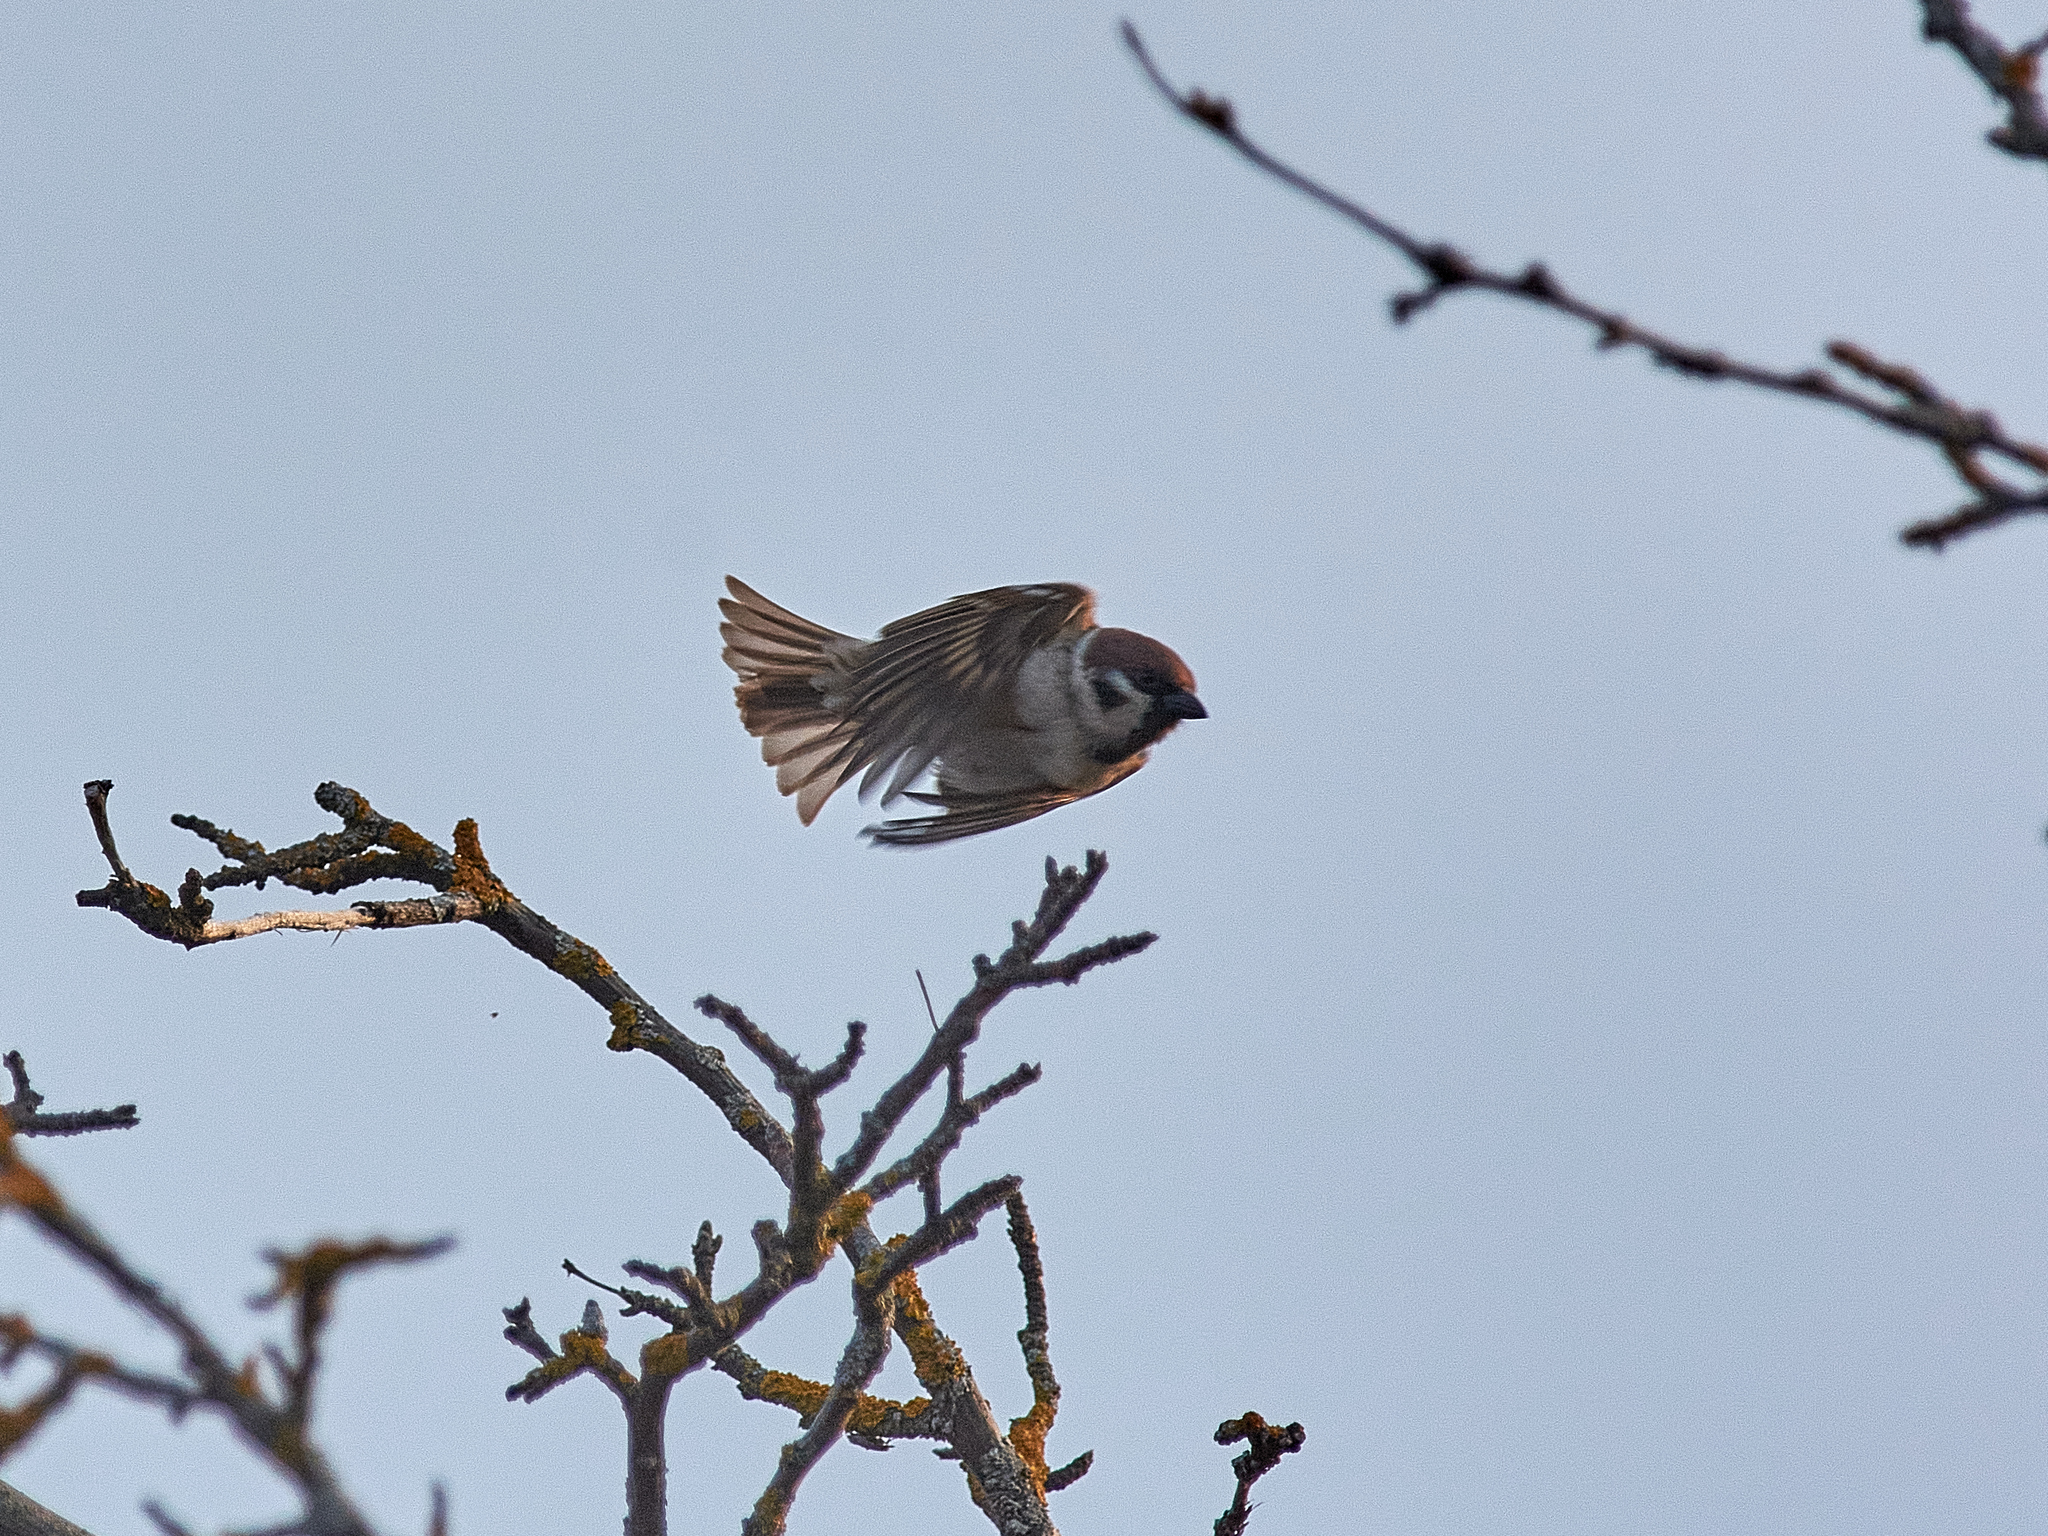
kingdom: Animalia
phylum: Chordata
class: Aves
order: Passeriformes
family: Passeridae
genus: Passer
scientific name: Passer montanus
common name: Eurasian tree sparrow
